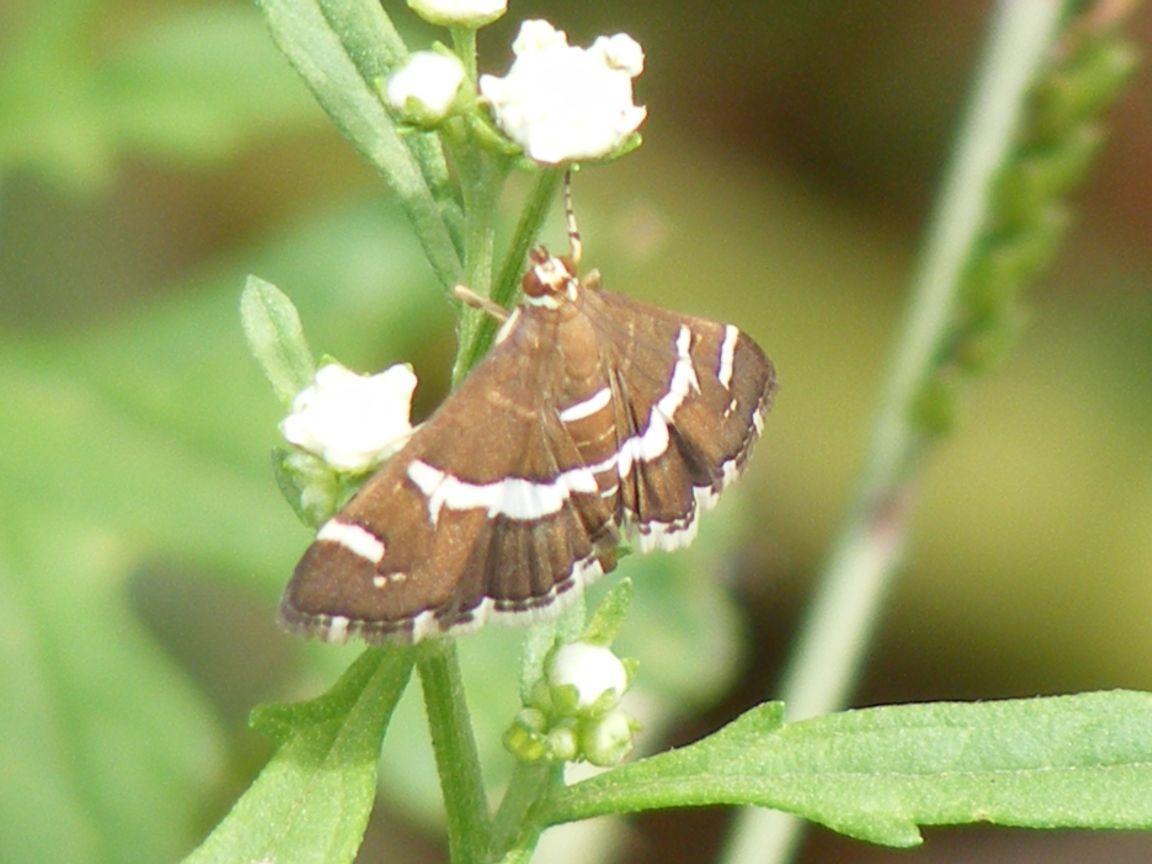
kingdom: Animalia
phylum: Arthropoda
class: Insecta
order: Lepidoptera
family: Crambidae
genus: Spoladea
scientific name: Spoladea recurvalis
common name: Beet webworm moth
